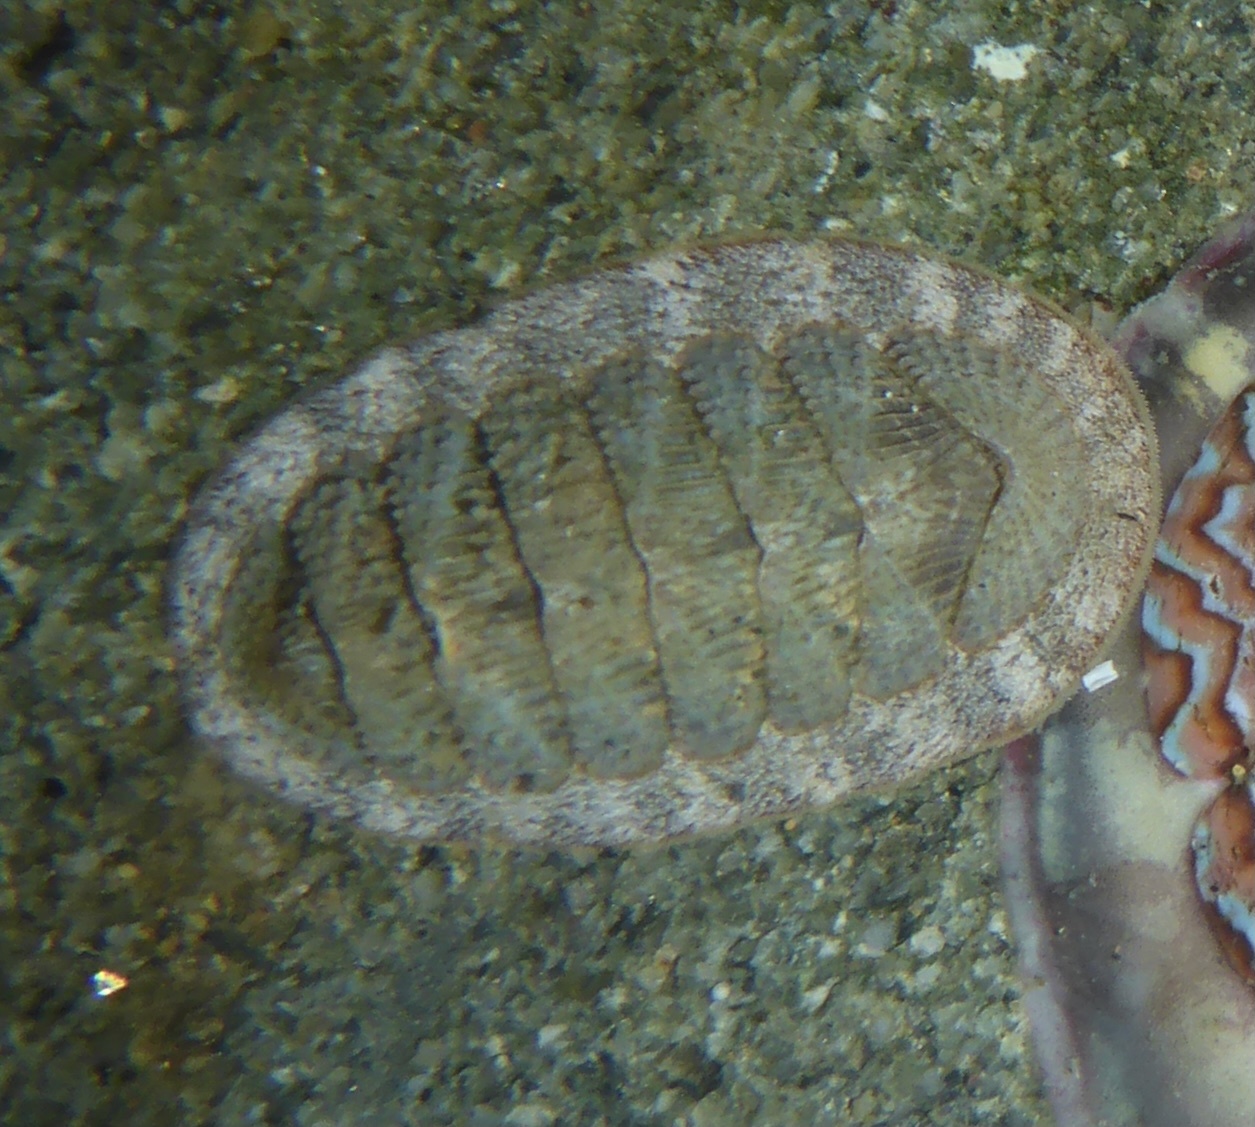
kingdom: Animalia
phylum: Mollusca
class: Polyplacophora
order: Chitonida
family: Ischnochitonidae
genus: Lepidozona
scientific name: Lepidozona cooperi
